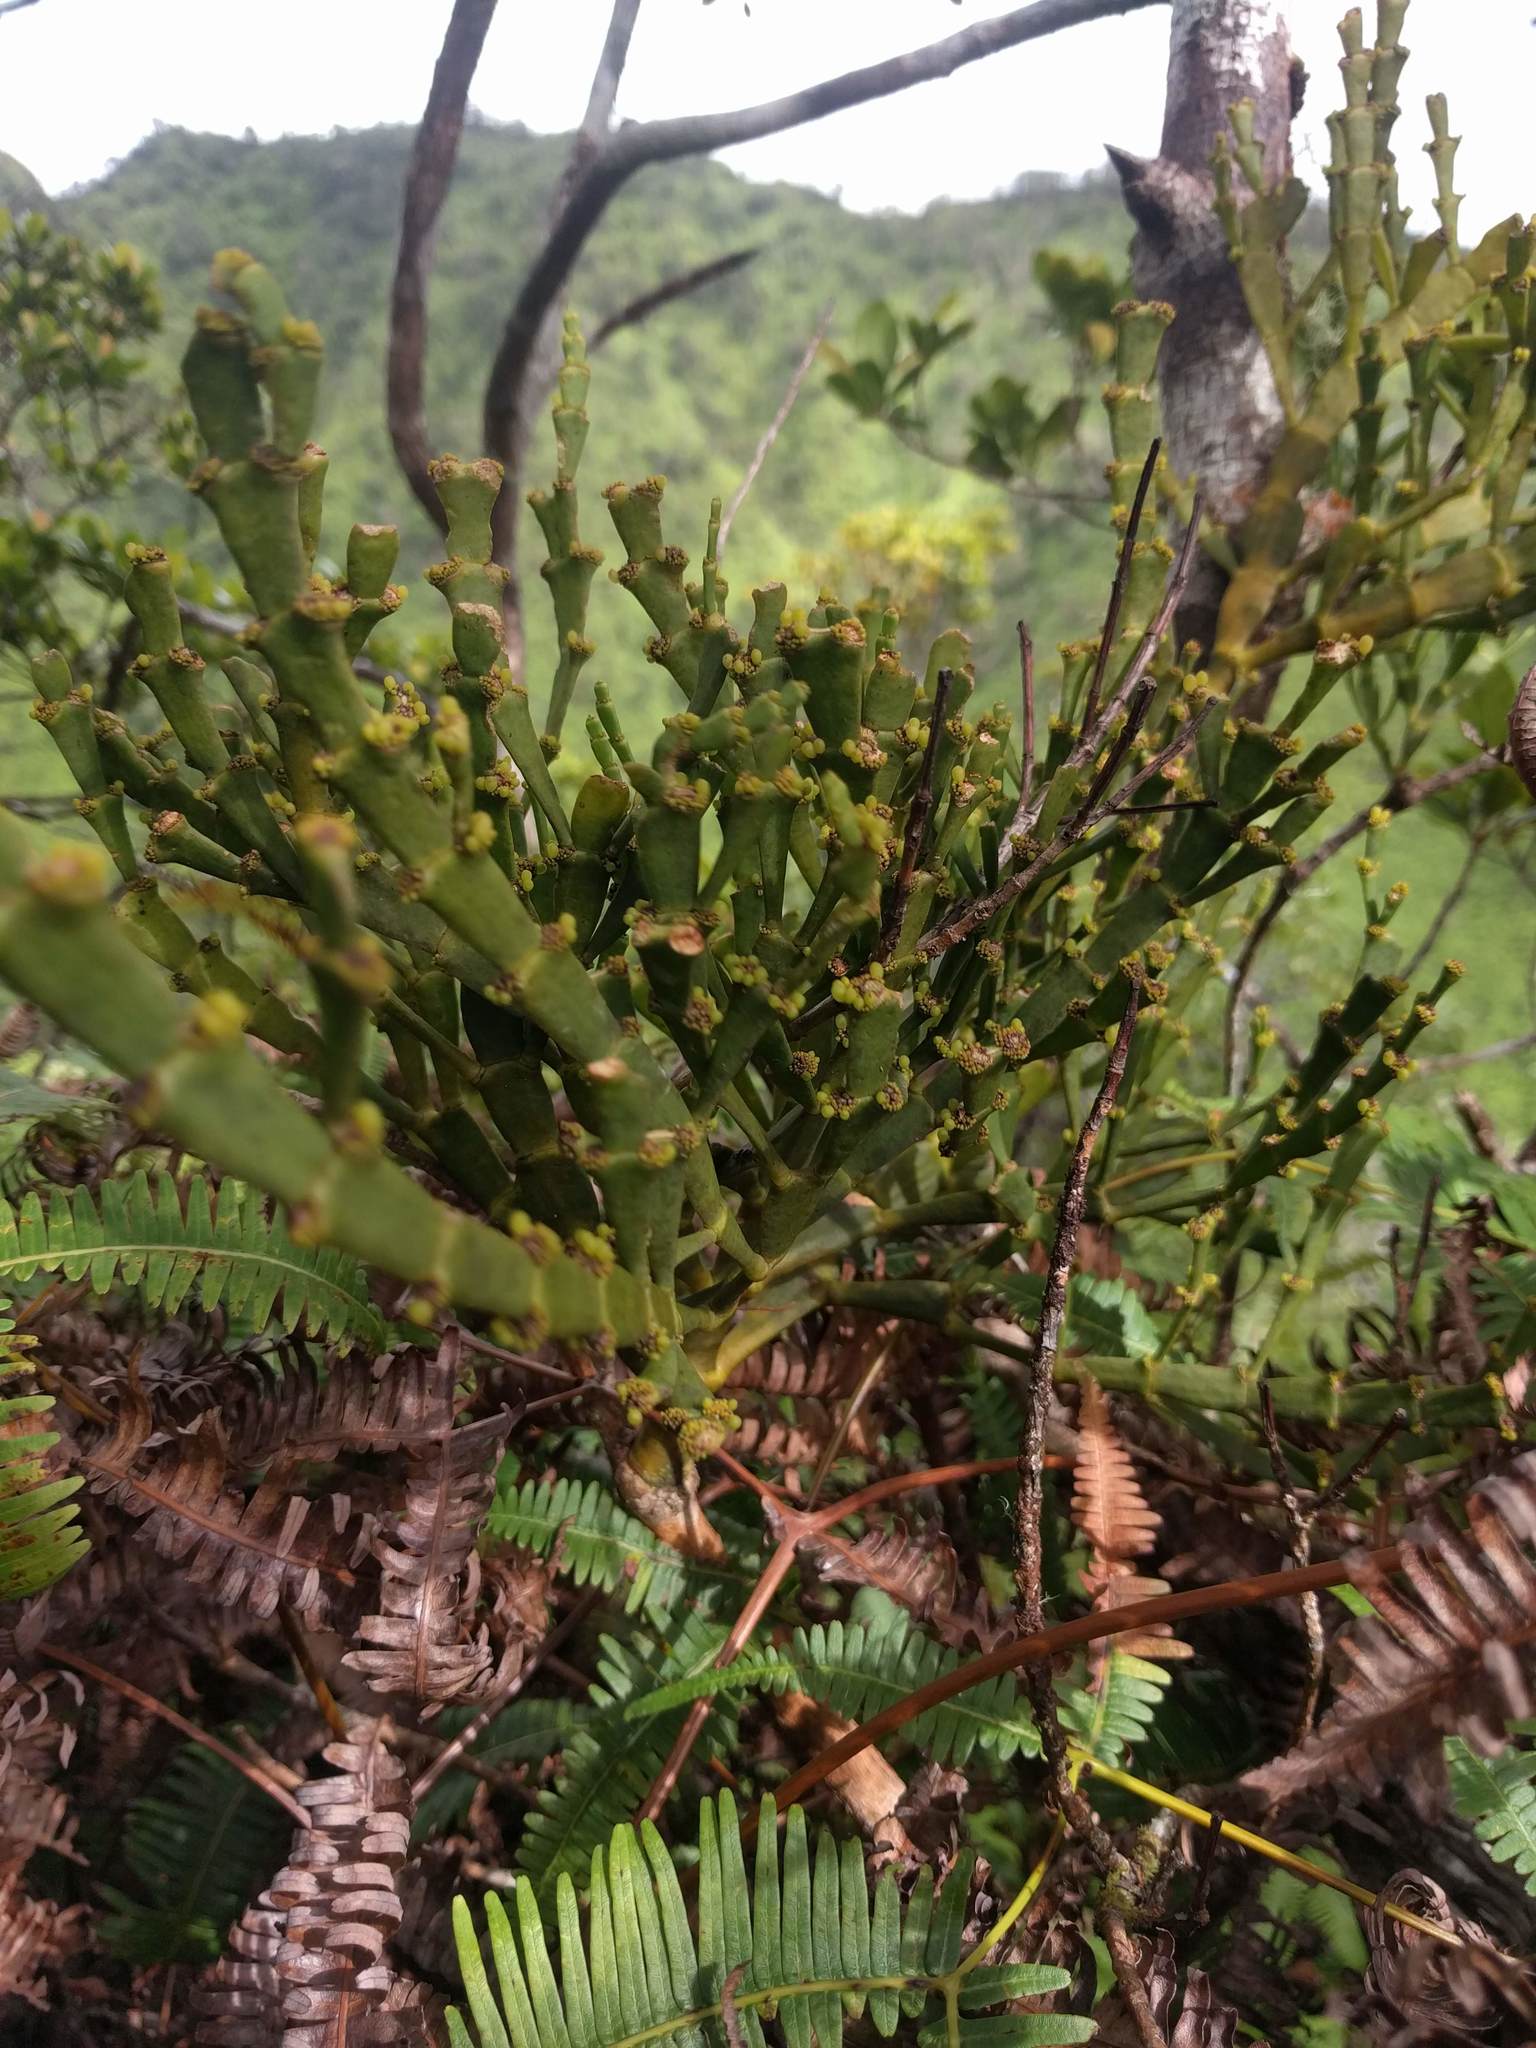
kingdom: Plantae
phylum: Tracheophyta
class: Magnoliopsida
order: Santalales
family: Viscaceae
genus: Korthalsella
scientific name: Korthalsella complanata
